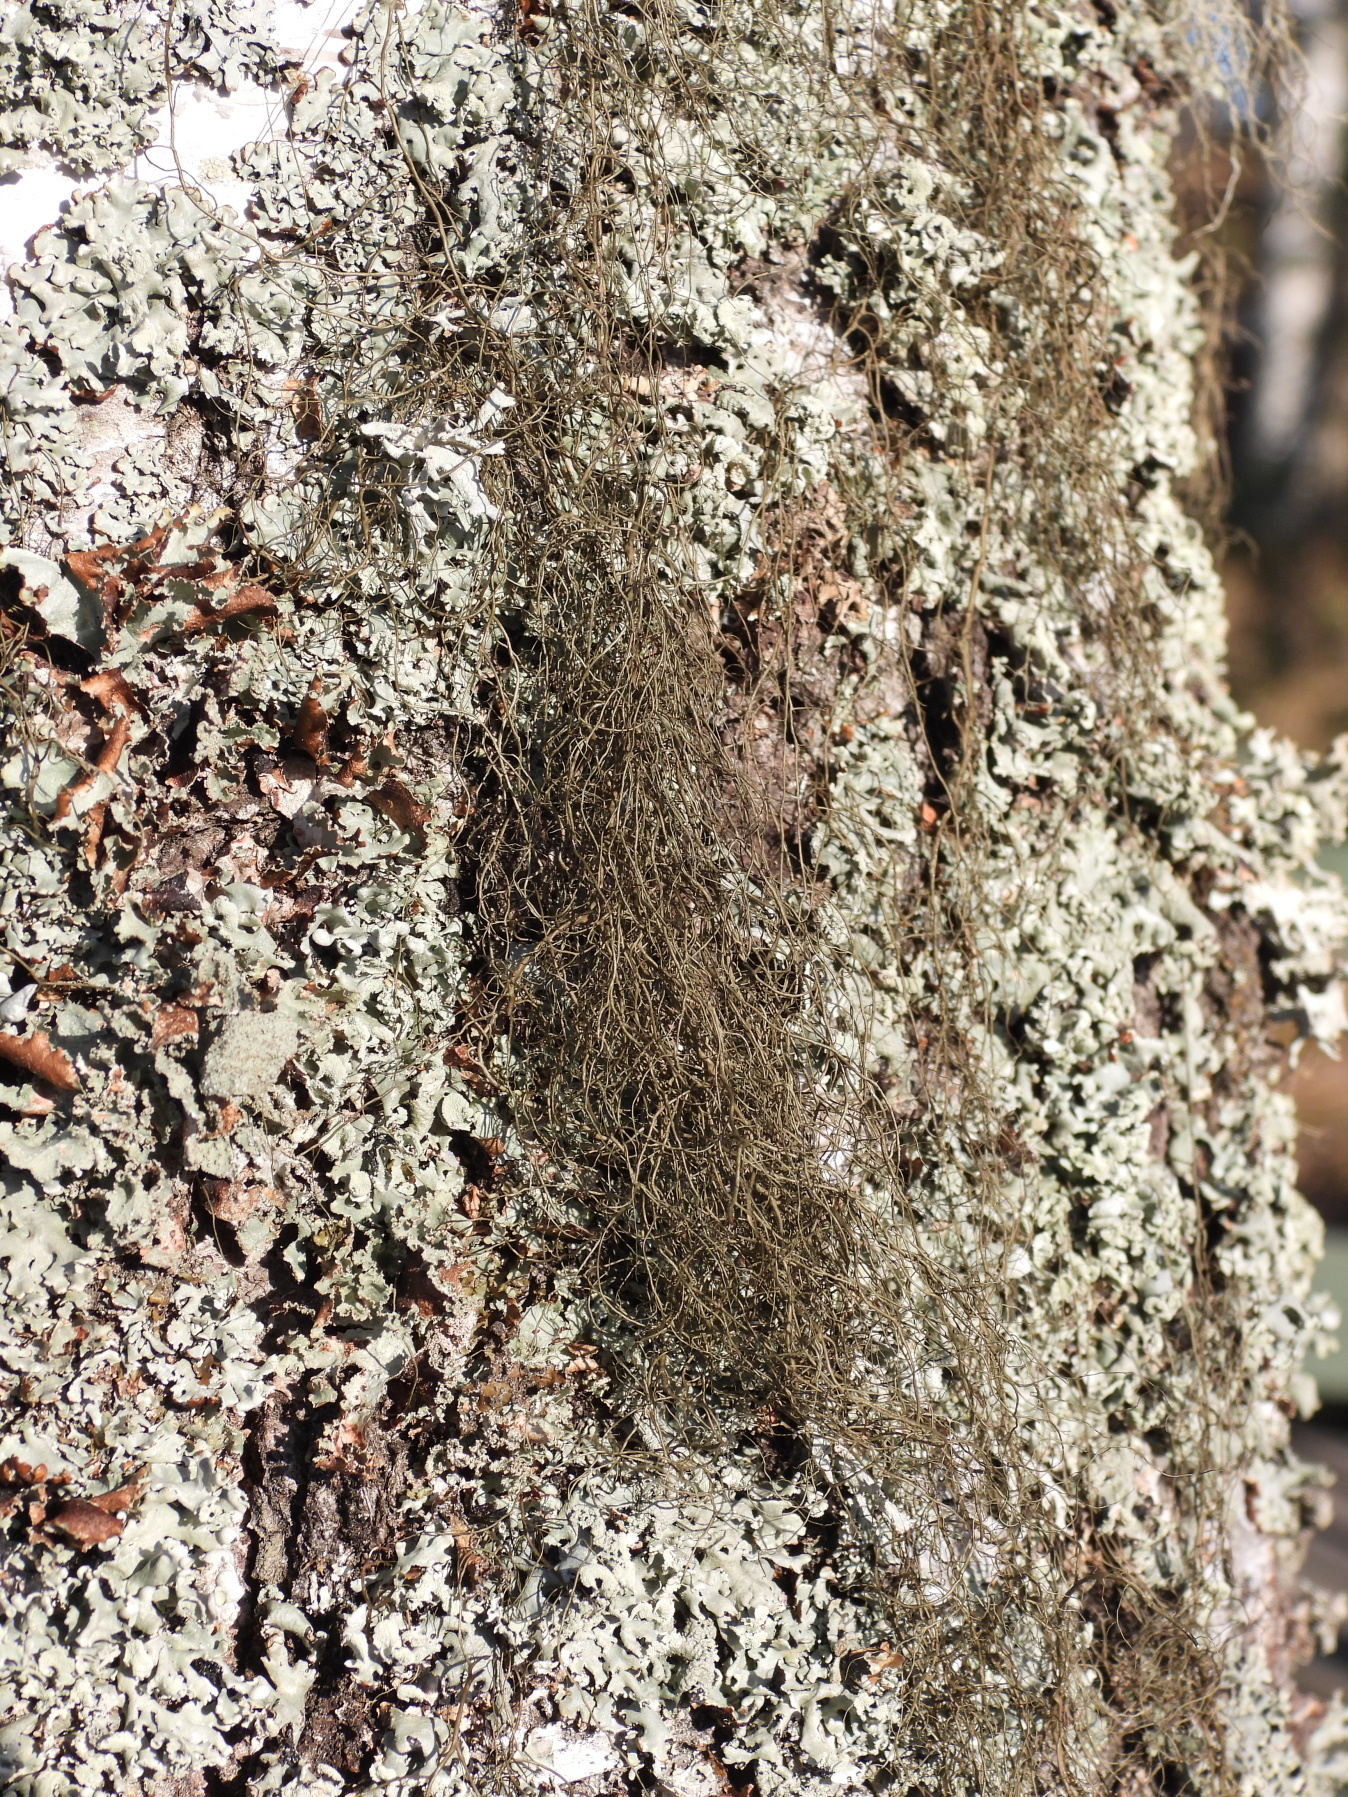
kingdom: Fungi
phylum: Ascomycota
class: Lecanoromycetes
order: Lecanorales
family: Parmeliaceae
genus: Bryoria
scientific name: Bryoria fuscescens
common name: Pale-footed horsehair lichen
